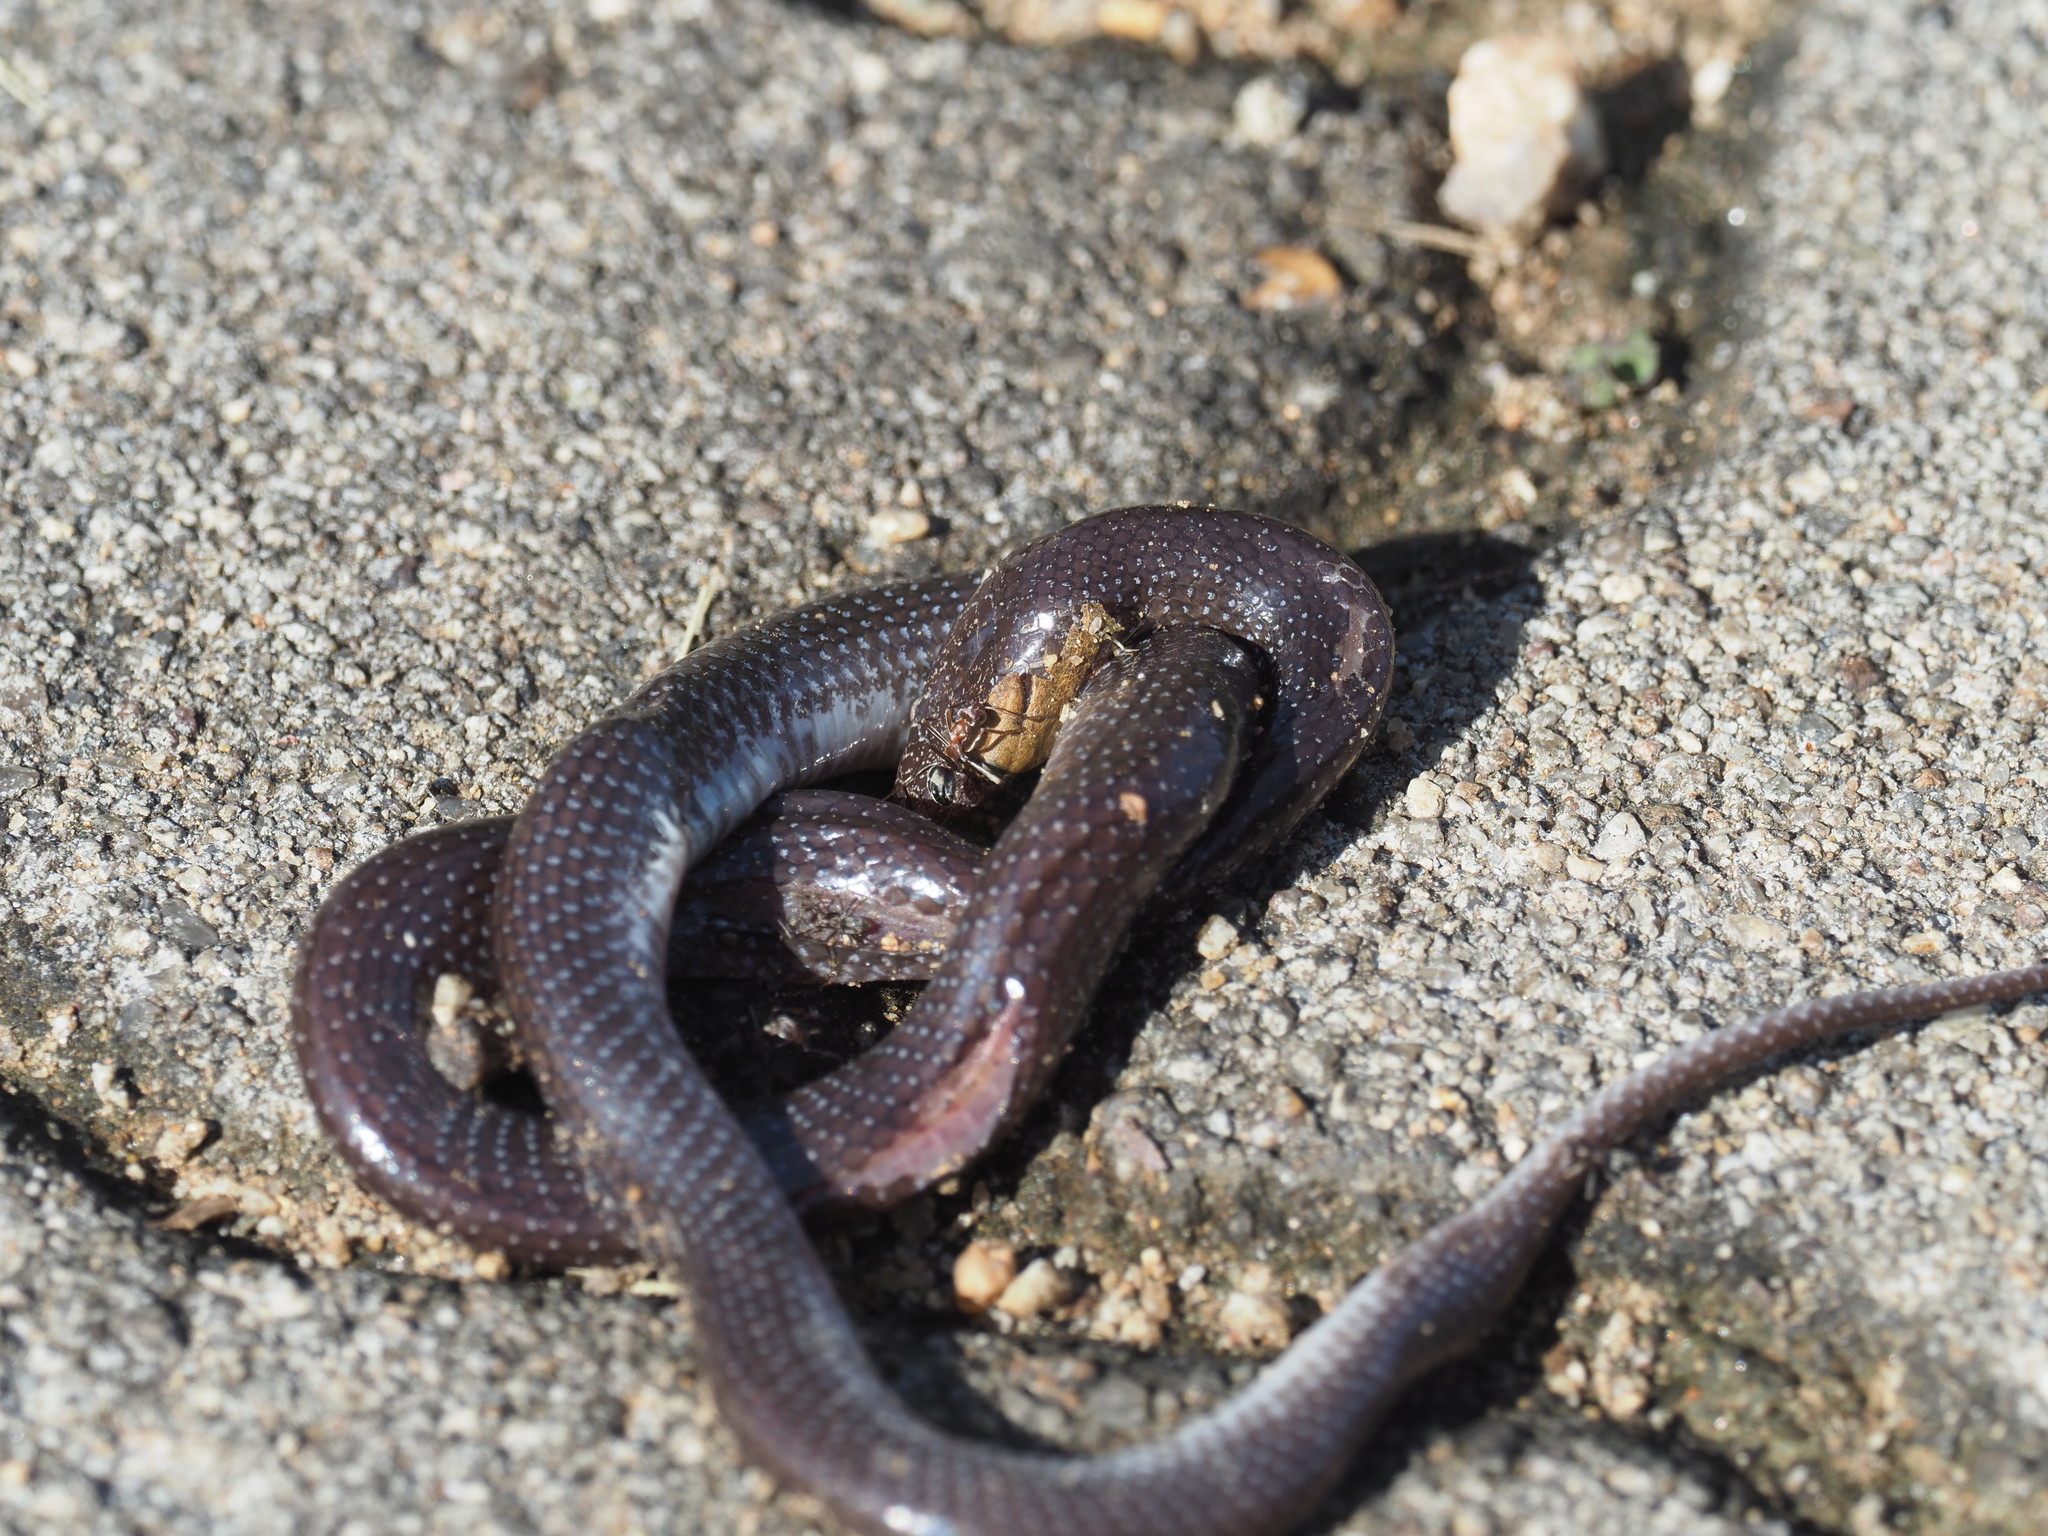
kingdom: Animalia
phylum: Chordata
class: Squamata
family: Lamprophiidae
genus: Lycophidion
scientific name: Lycophidion capense
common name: Cape wolf snake
